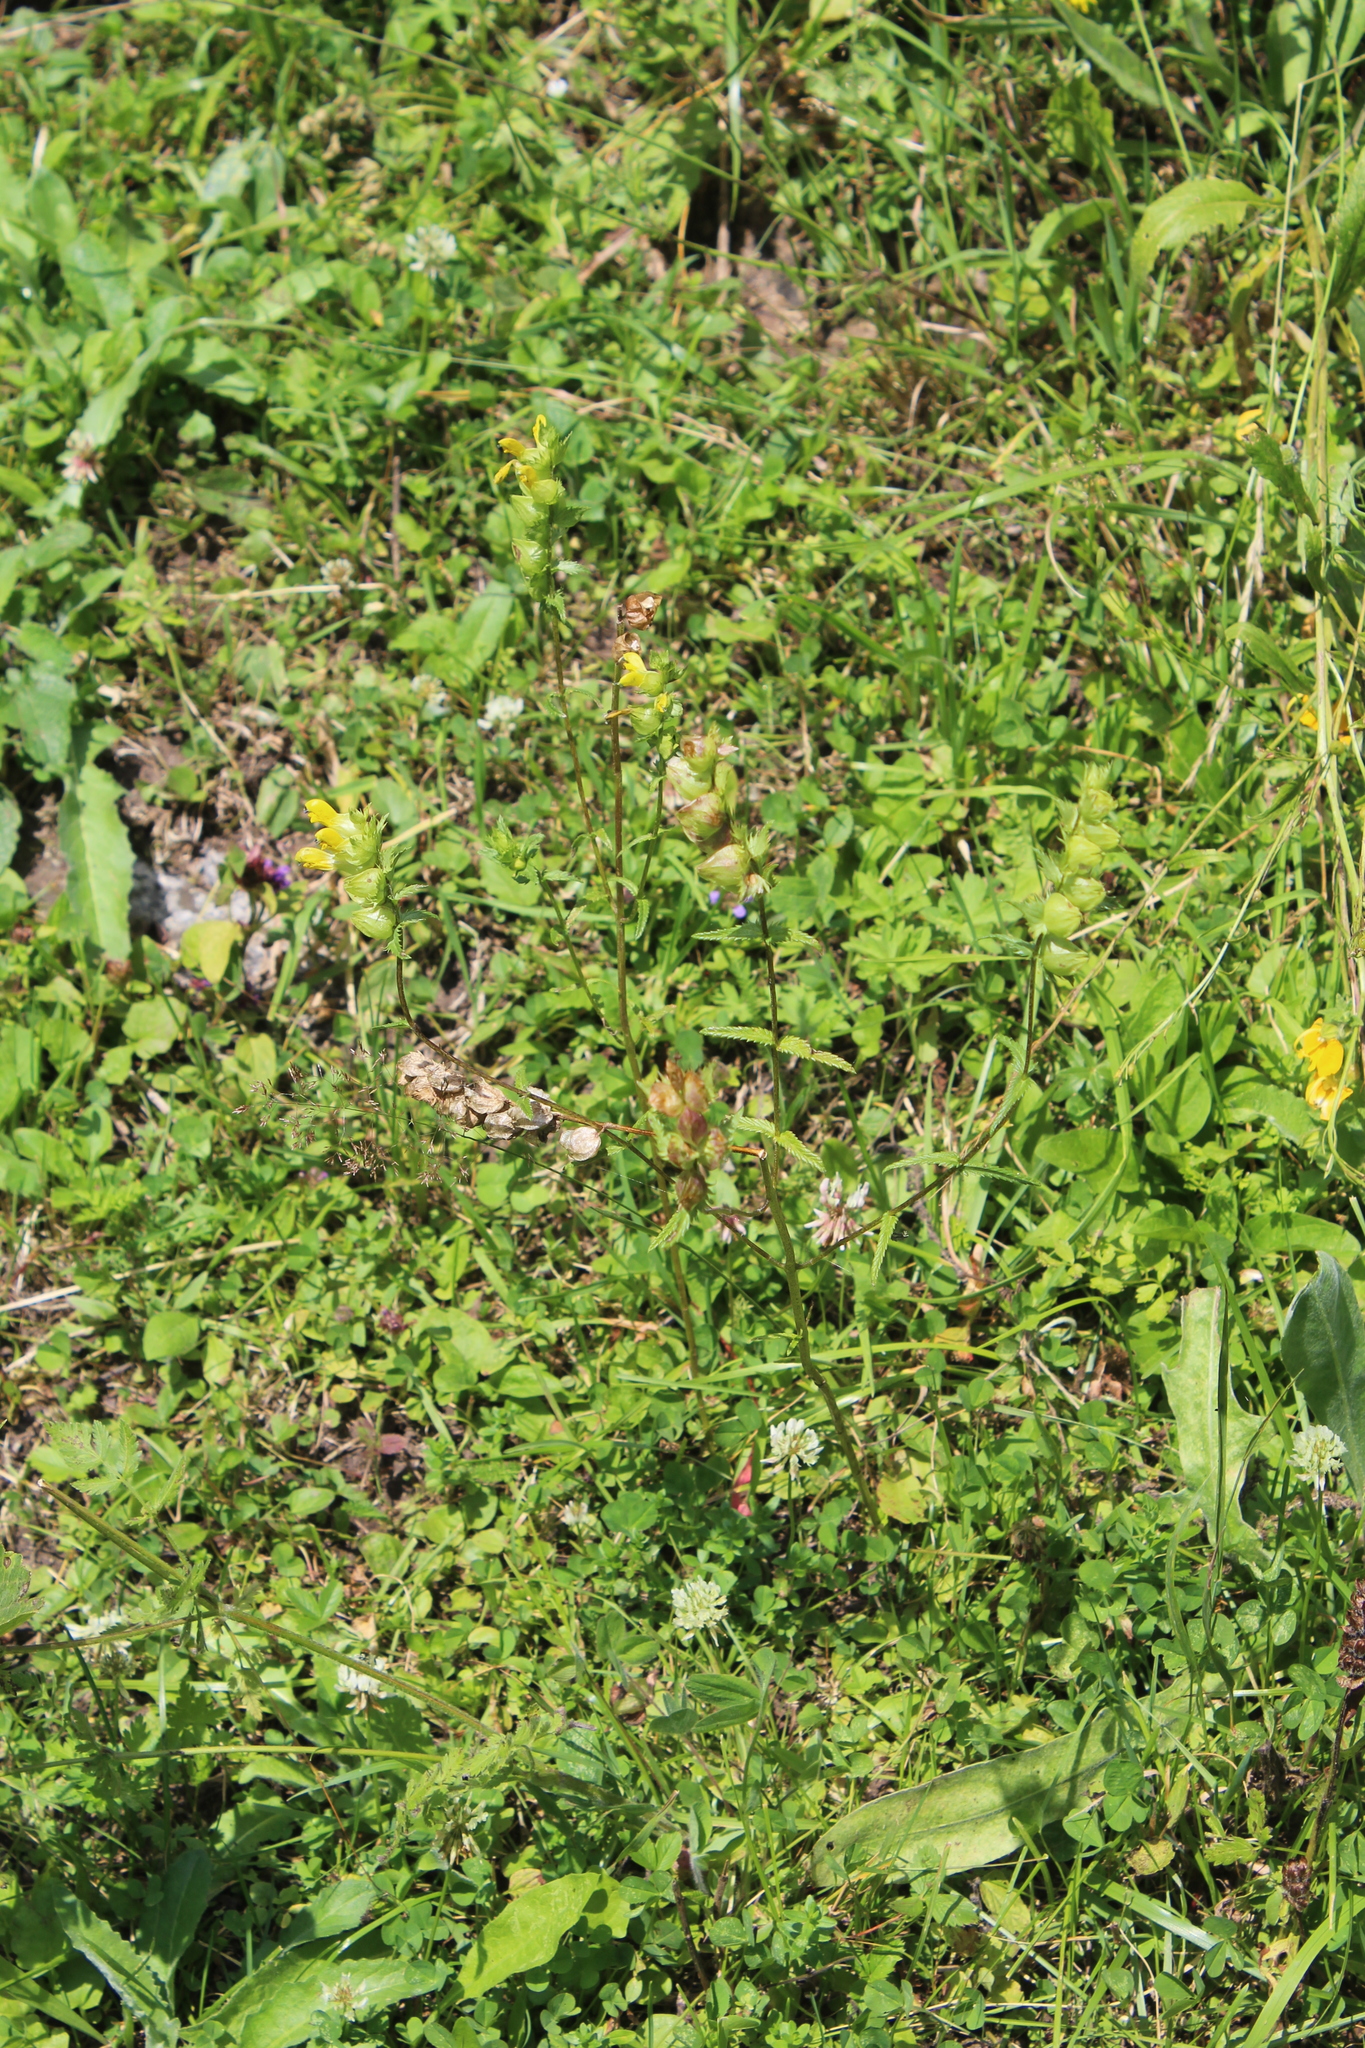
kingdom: Plantae
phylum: Tracheophyta
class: Magnoliopsida
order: Lamiales
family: Orobanchaceae
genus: Rhinanthus
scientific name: Rhinanthus subulatus
